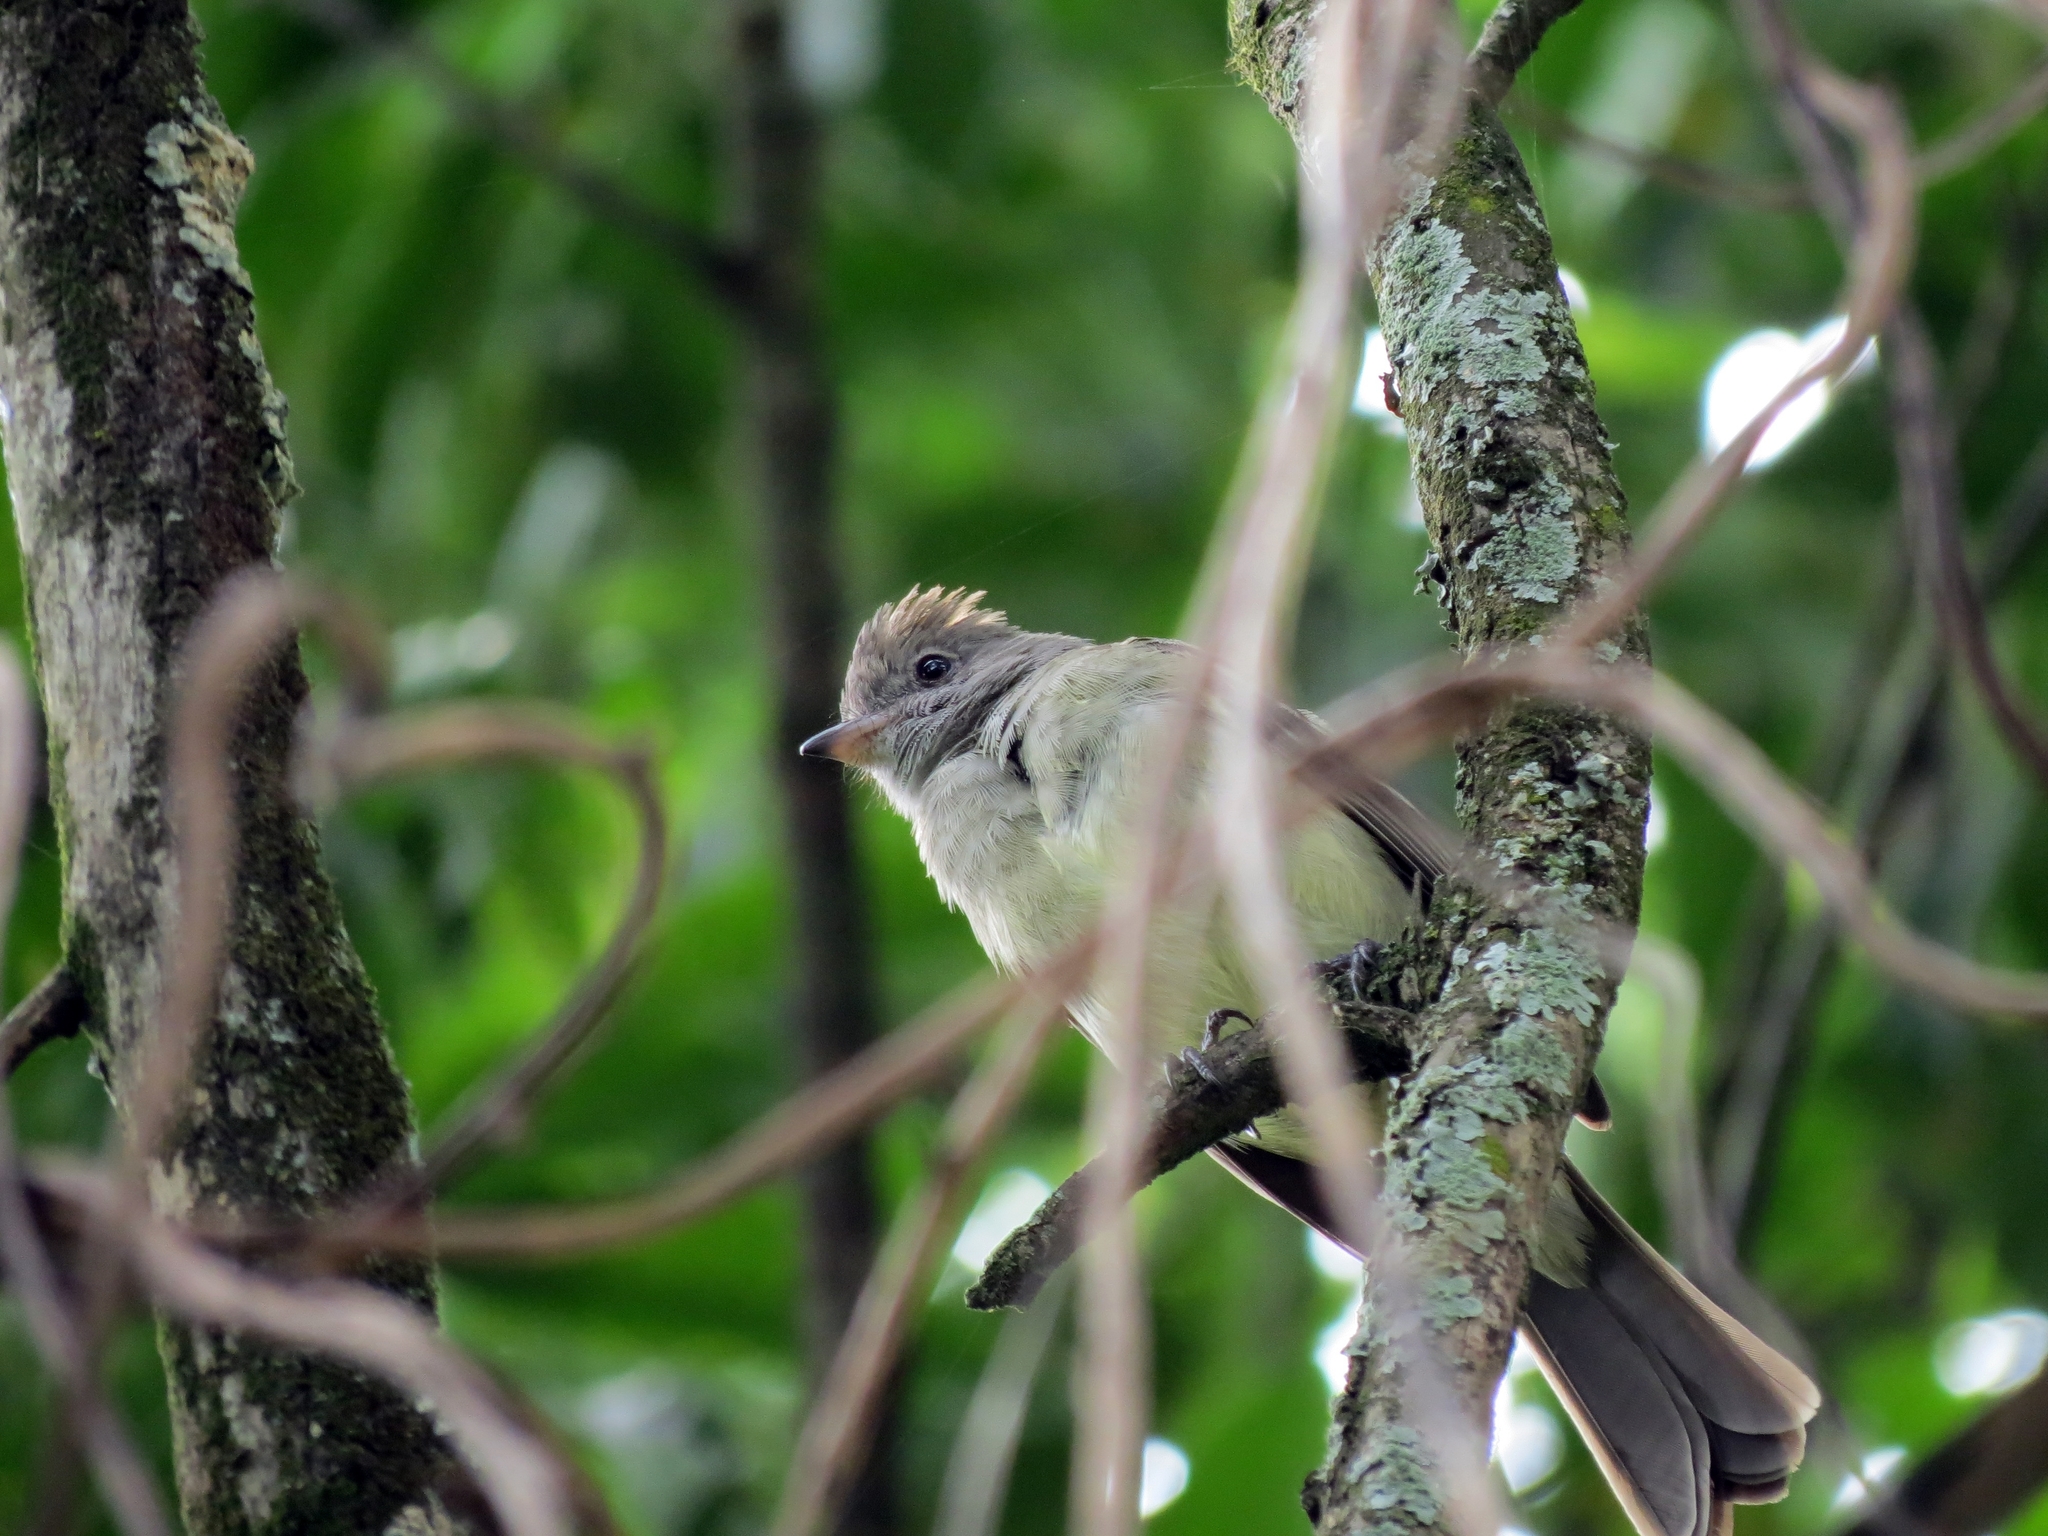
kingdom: Animalia
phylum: Chordata
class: Aves
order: Passeriformes
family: Tyrannidae
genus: Elaenia
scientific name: Elaenia flavogaster
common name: Yellow-bellied elaenia
